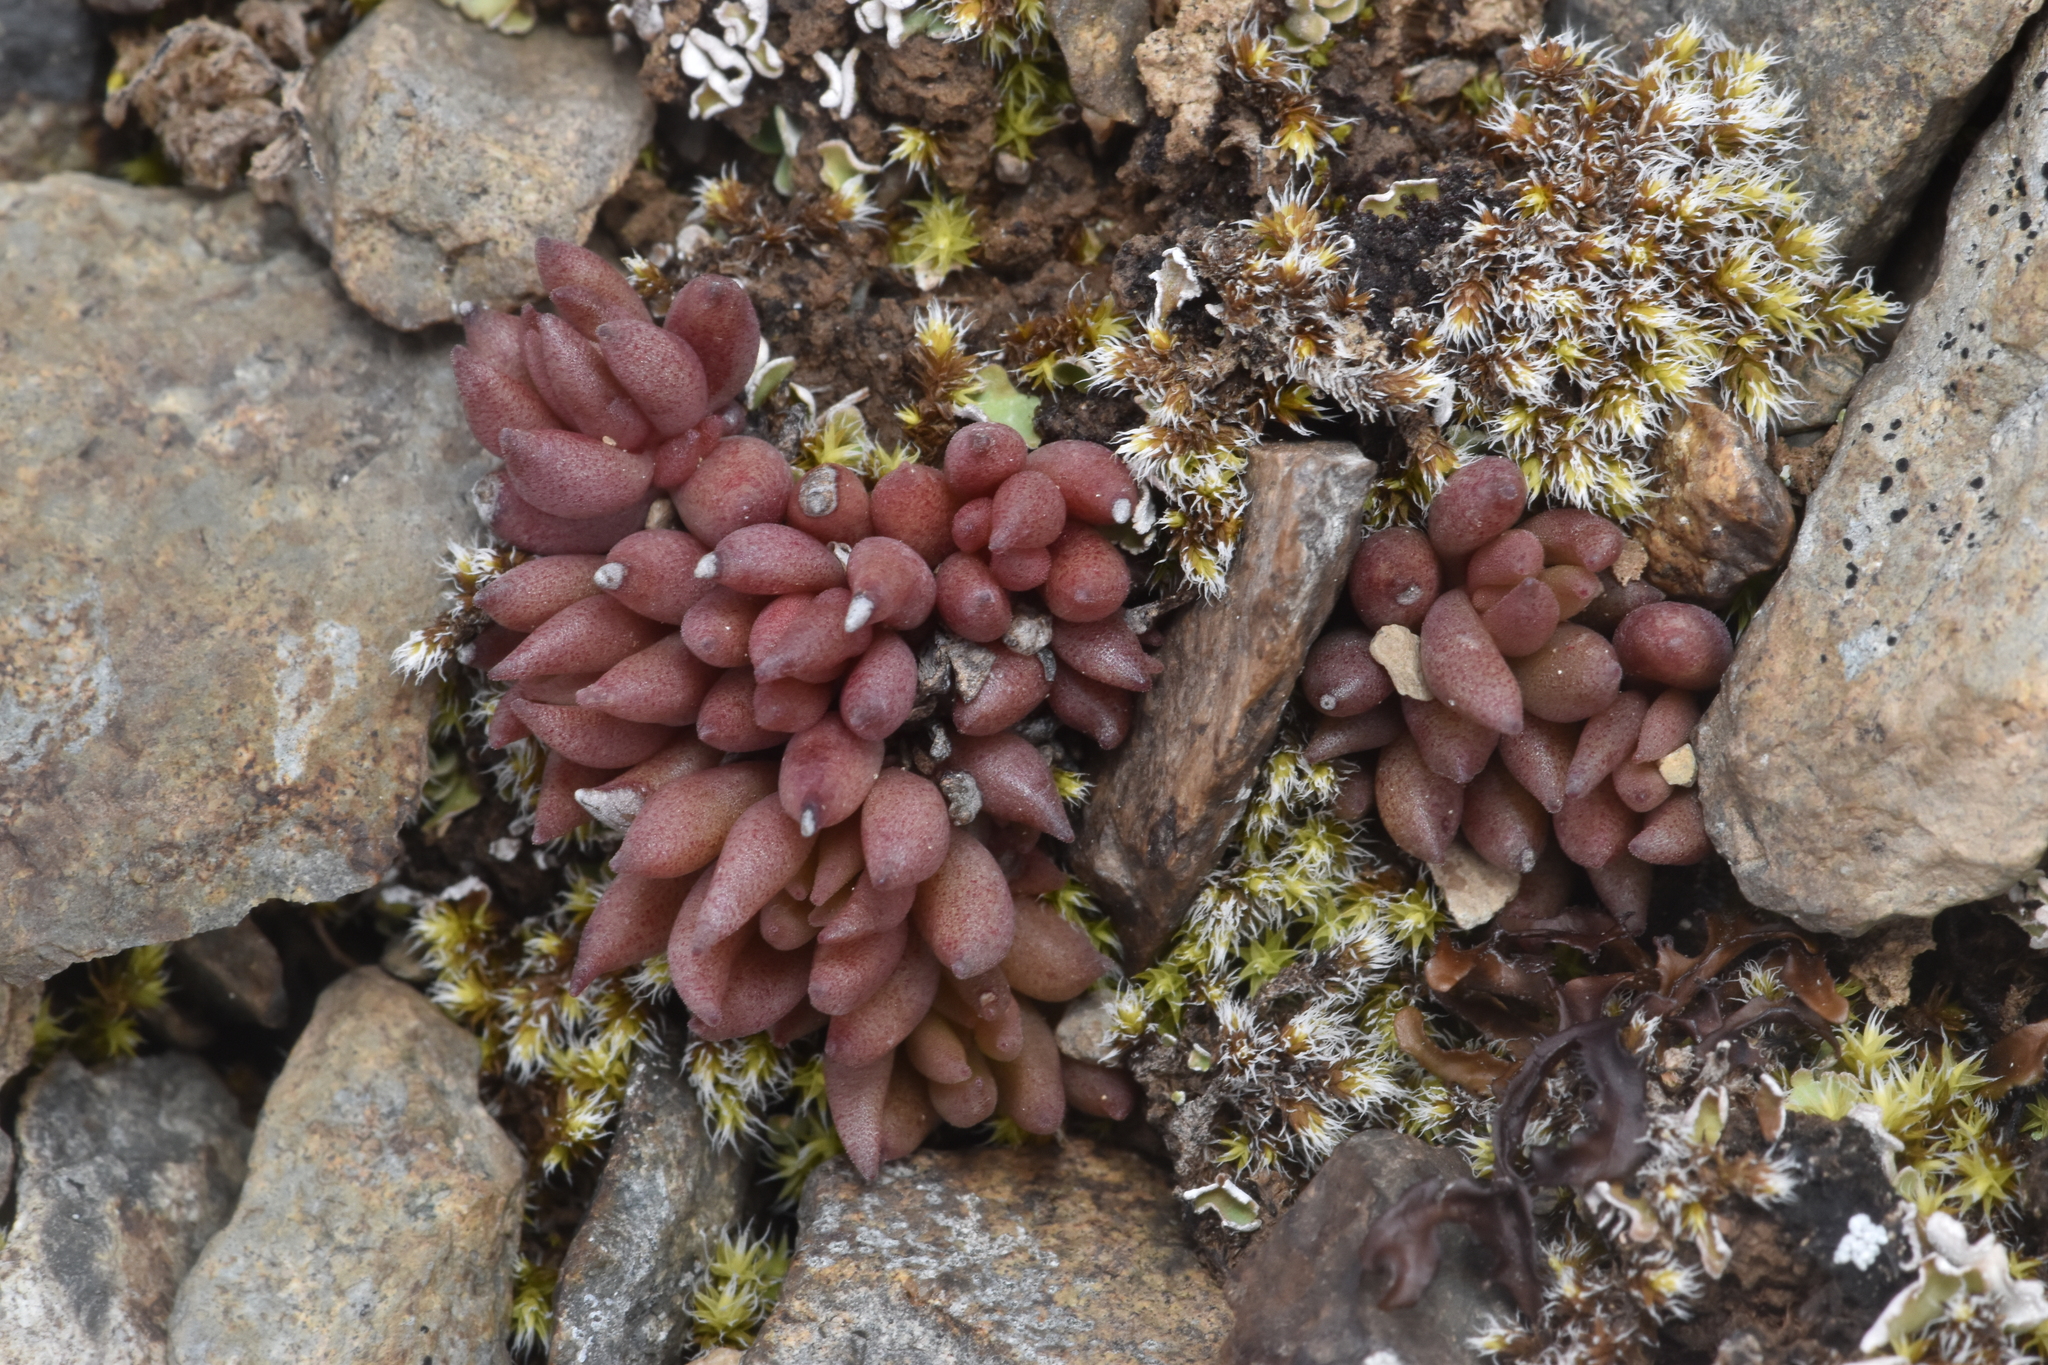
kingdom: Plantae
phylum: Tracheophyta
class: Magnoliopsida
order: Saxifragales
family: Crassulaceae
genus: Sedum
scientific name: Sedum lanceolatum
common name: Common stonecrop
